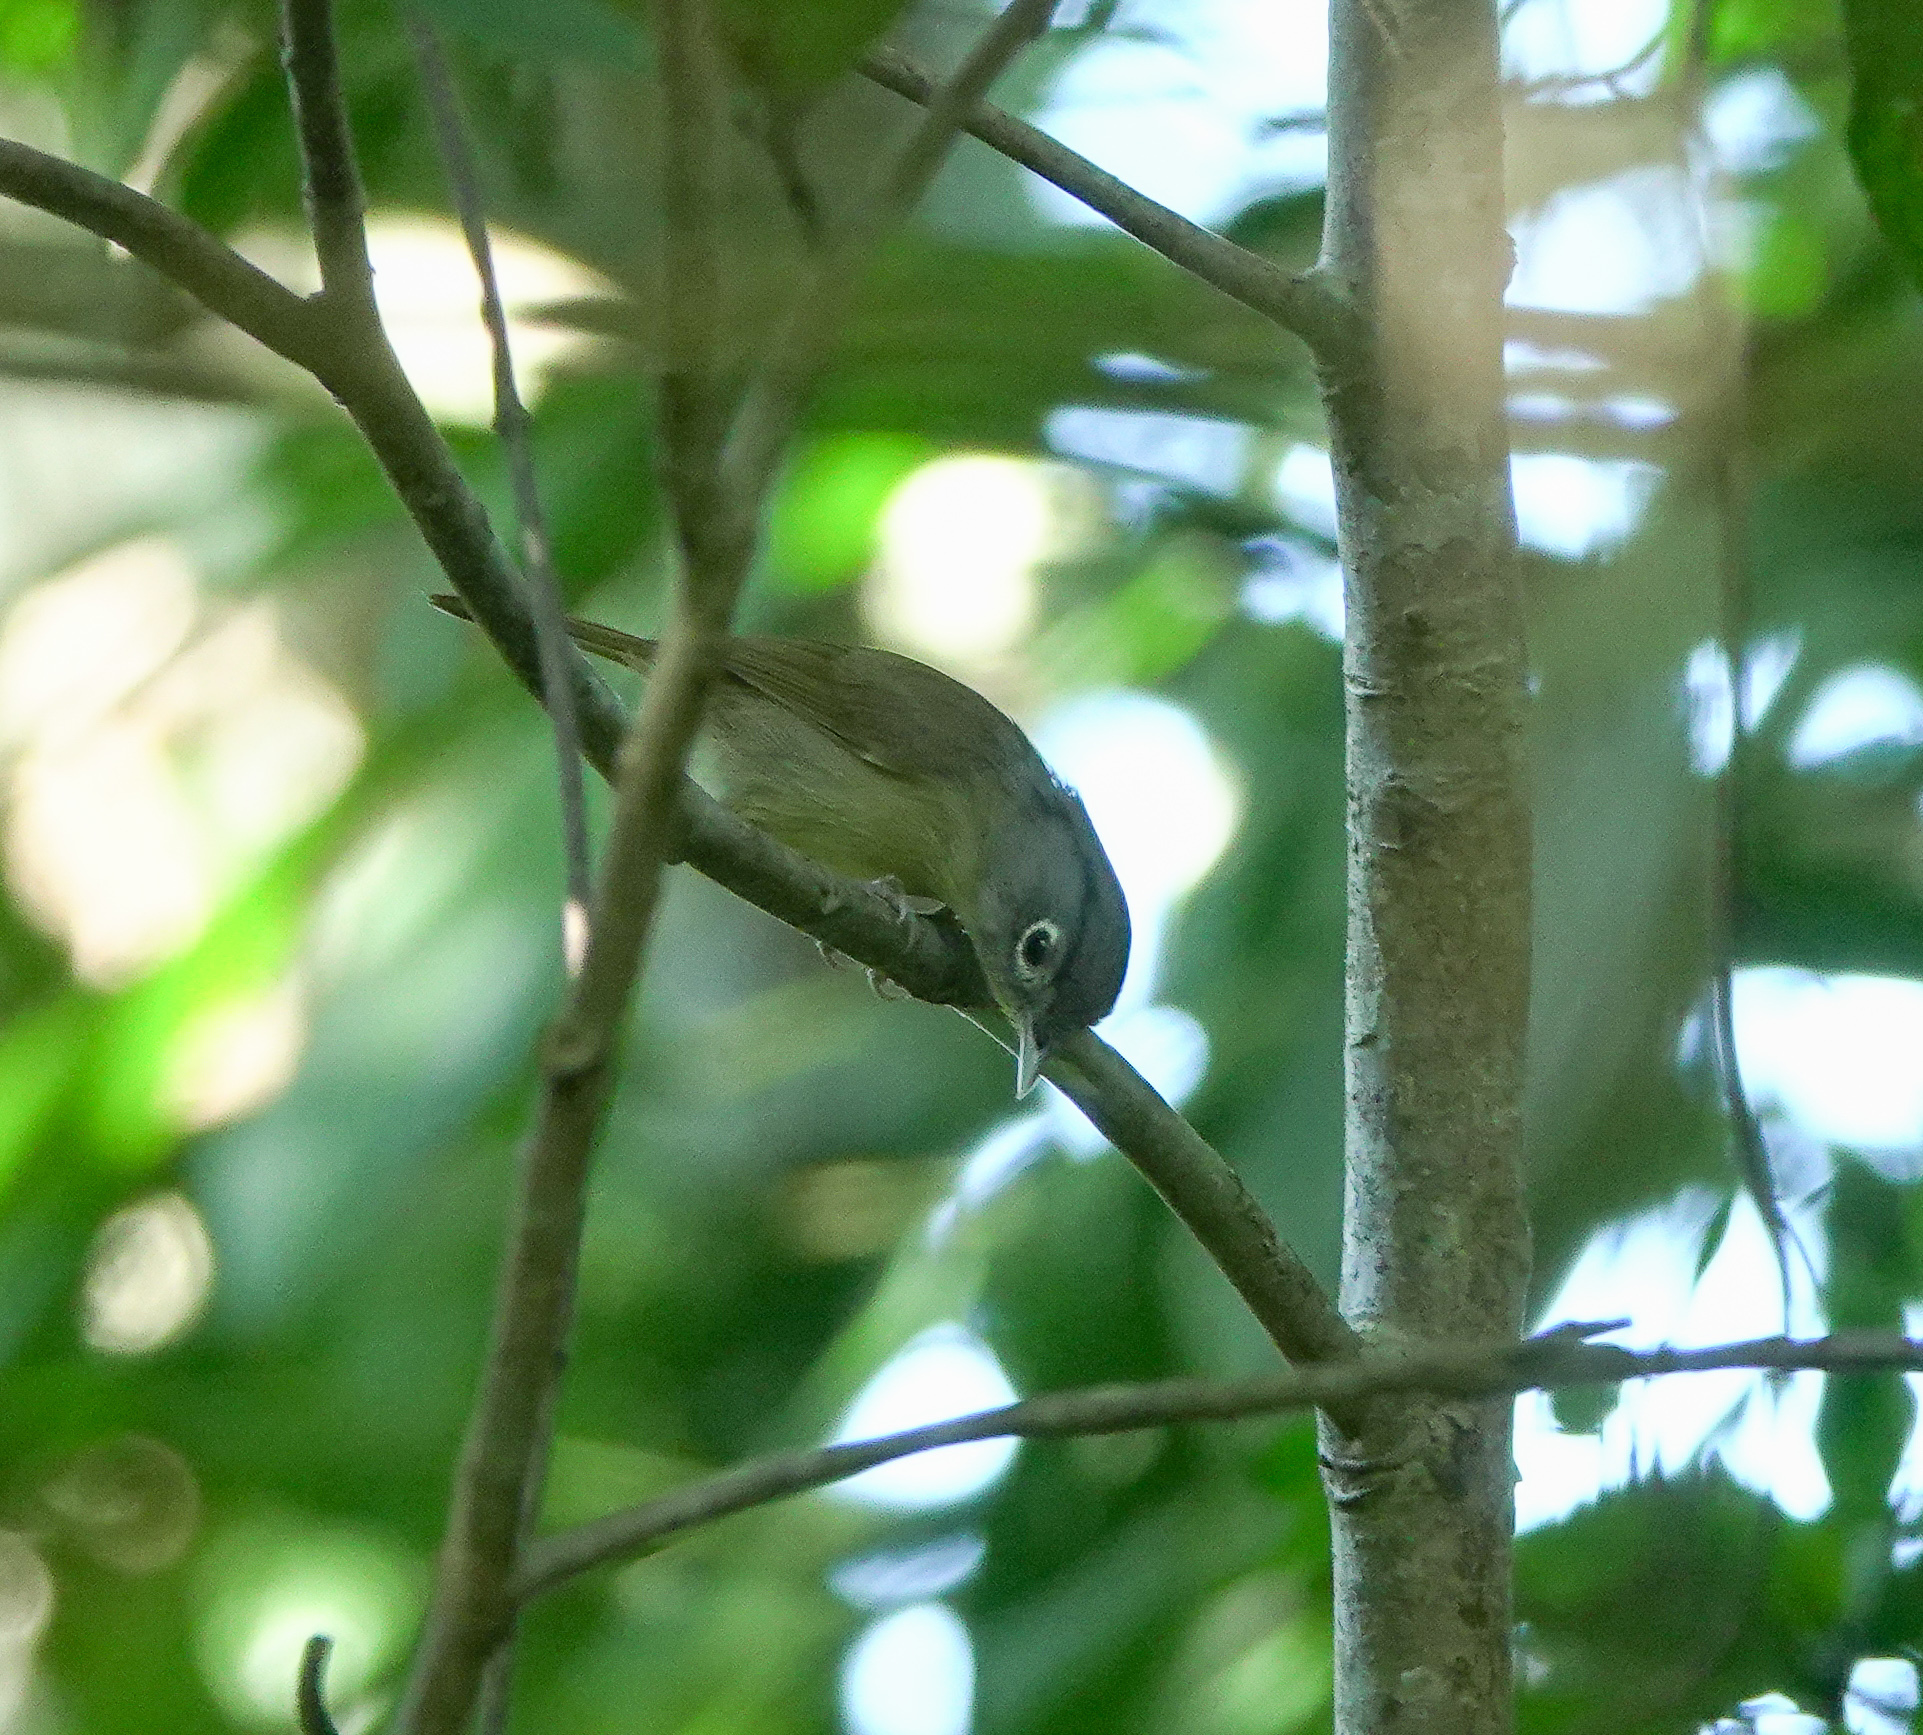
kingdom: Animalia
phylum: Chordata
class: Aves
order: Passeriformes
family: Pellorneidae
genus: Alcippe
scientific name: Alcippe nipalensis
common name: Nepal fulvetta
